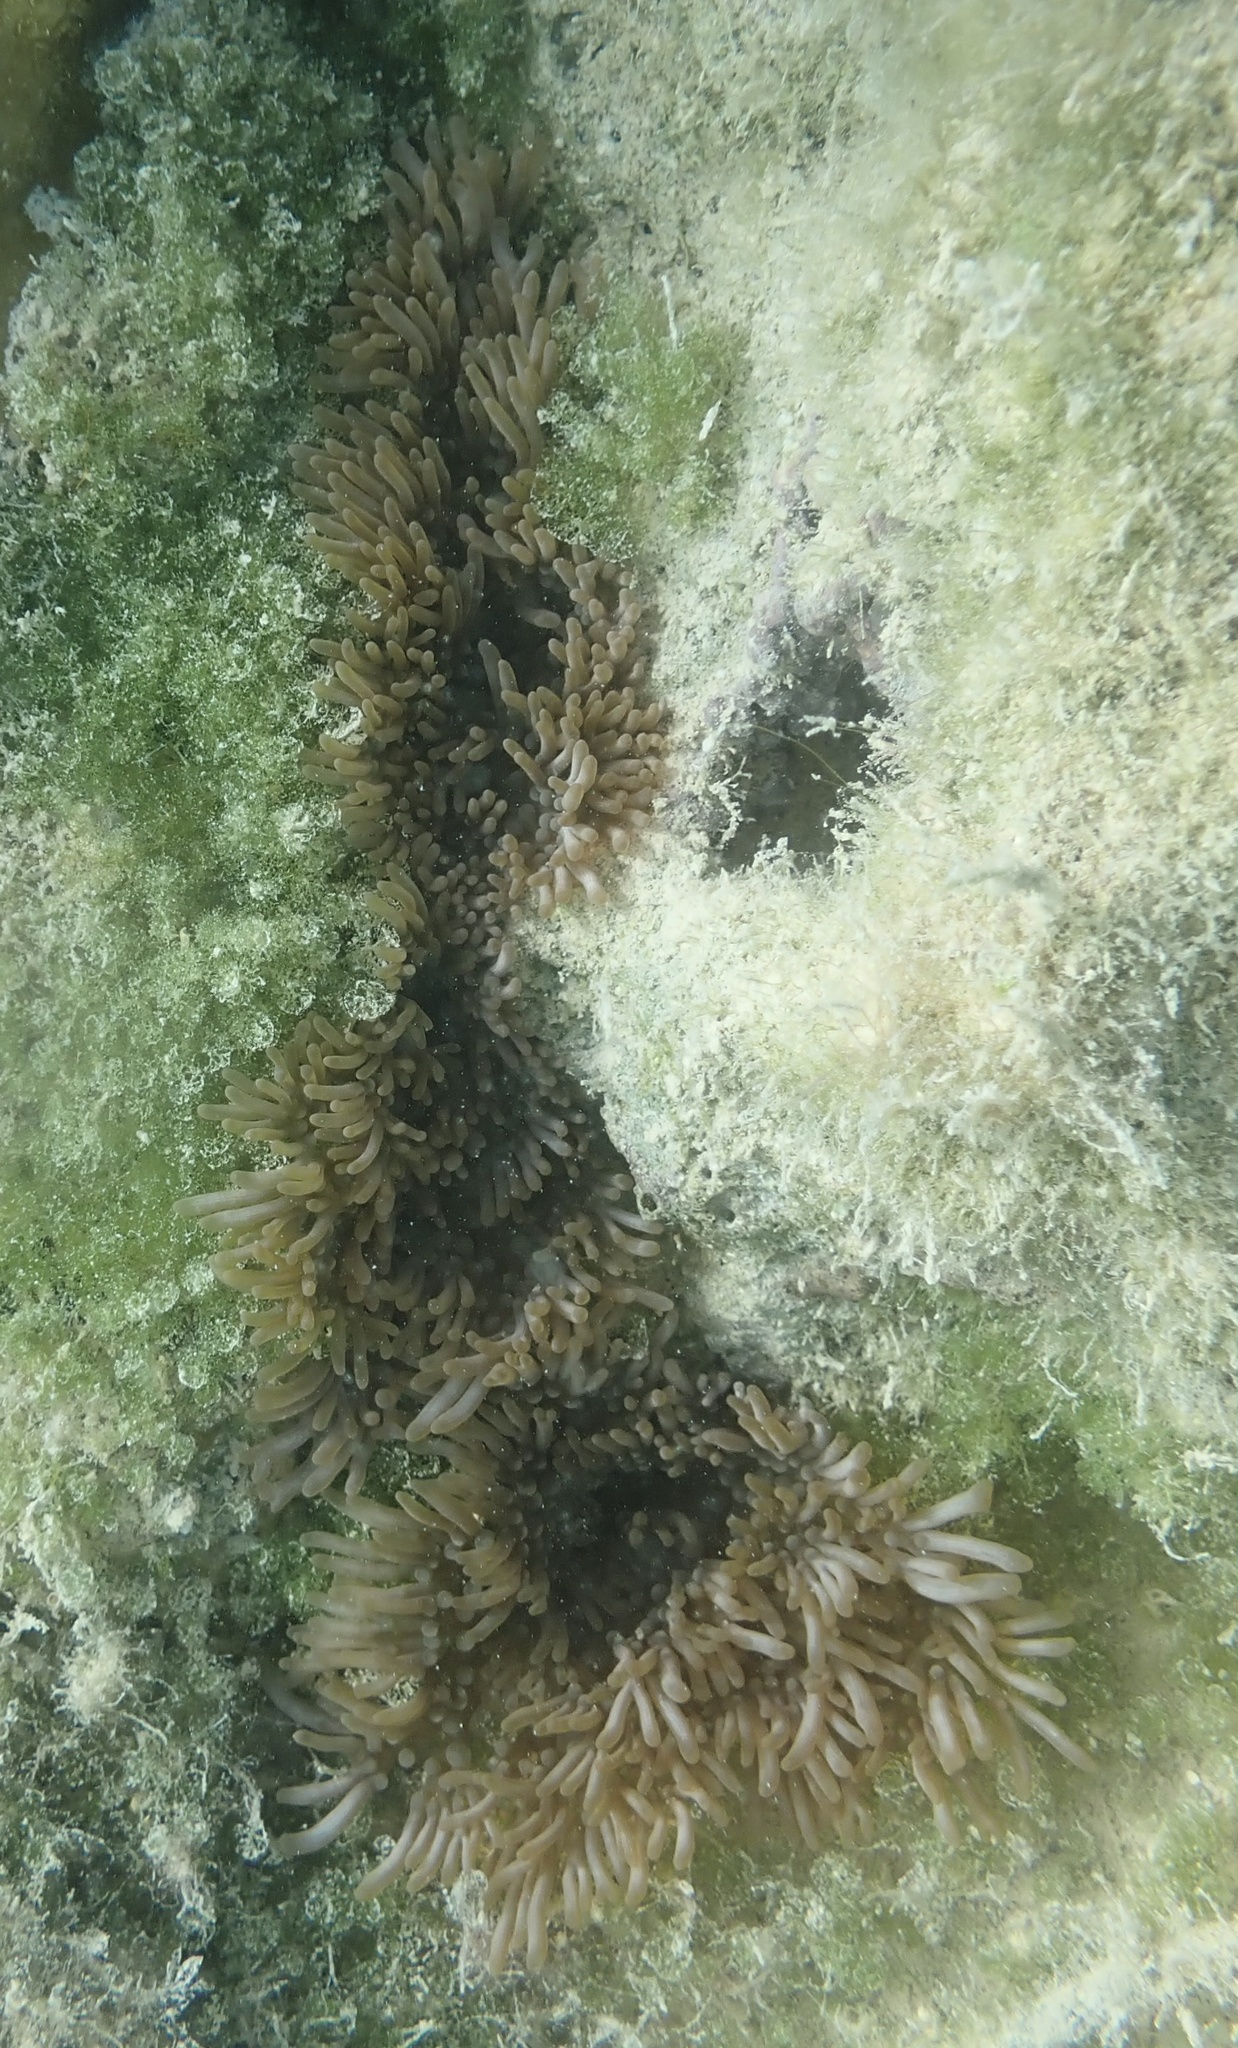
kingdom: Animalia
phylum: Cnidaria
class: Anthozoa
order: Actiniaria
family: Aliciidae
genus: Lebrunia
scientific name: Lebrunia neglecta
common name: Branching anemone
